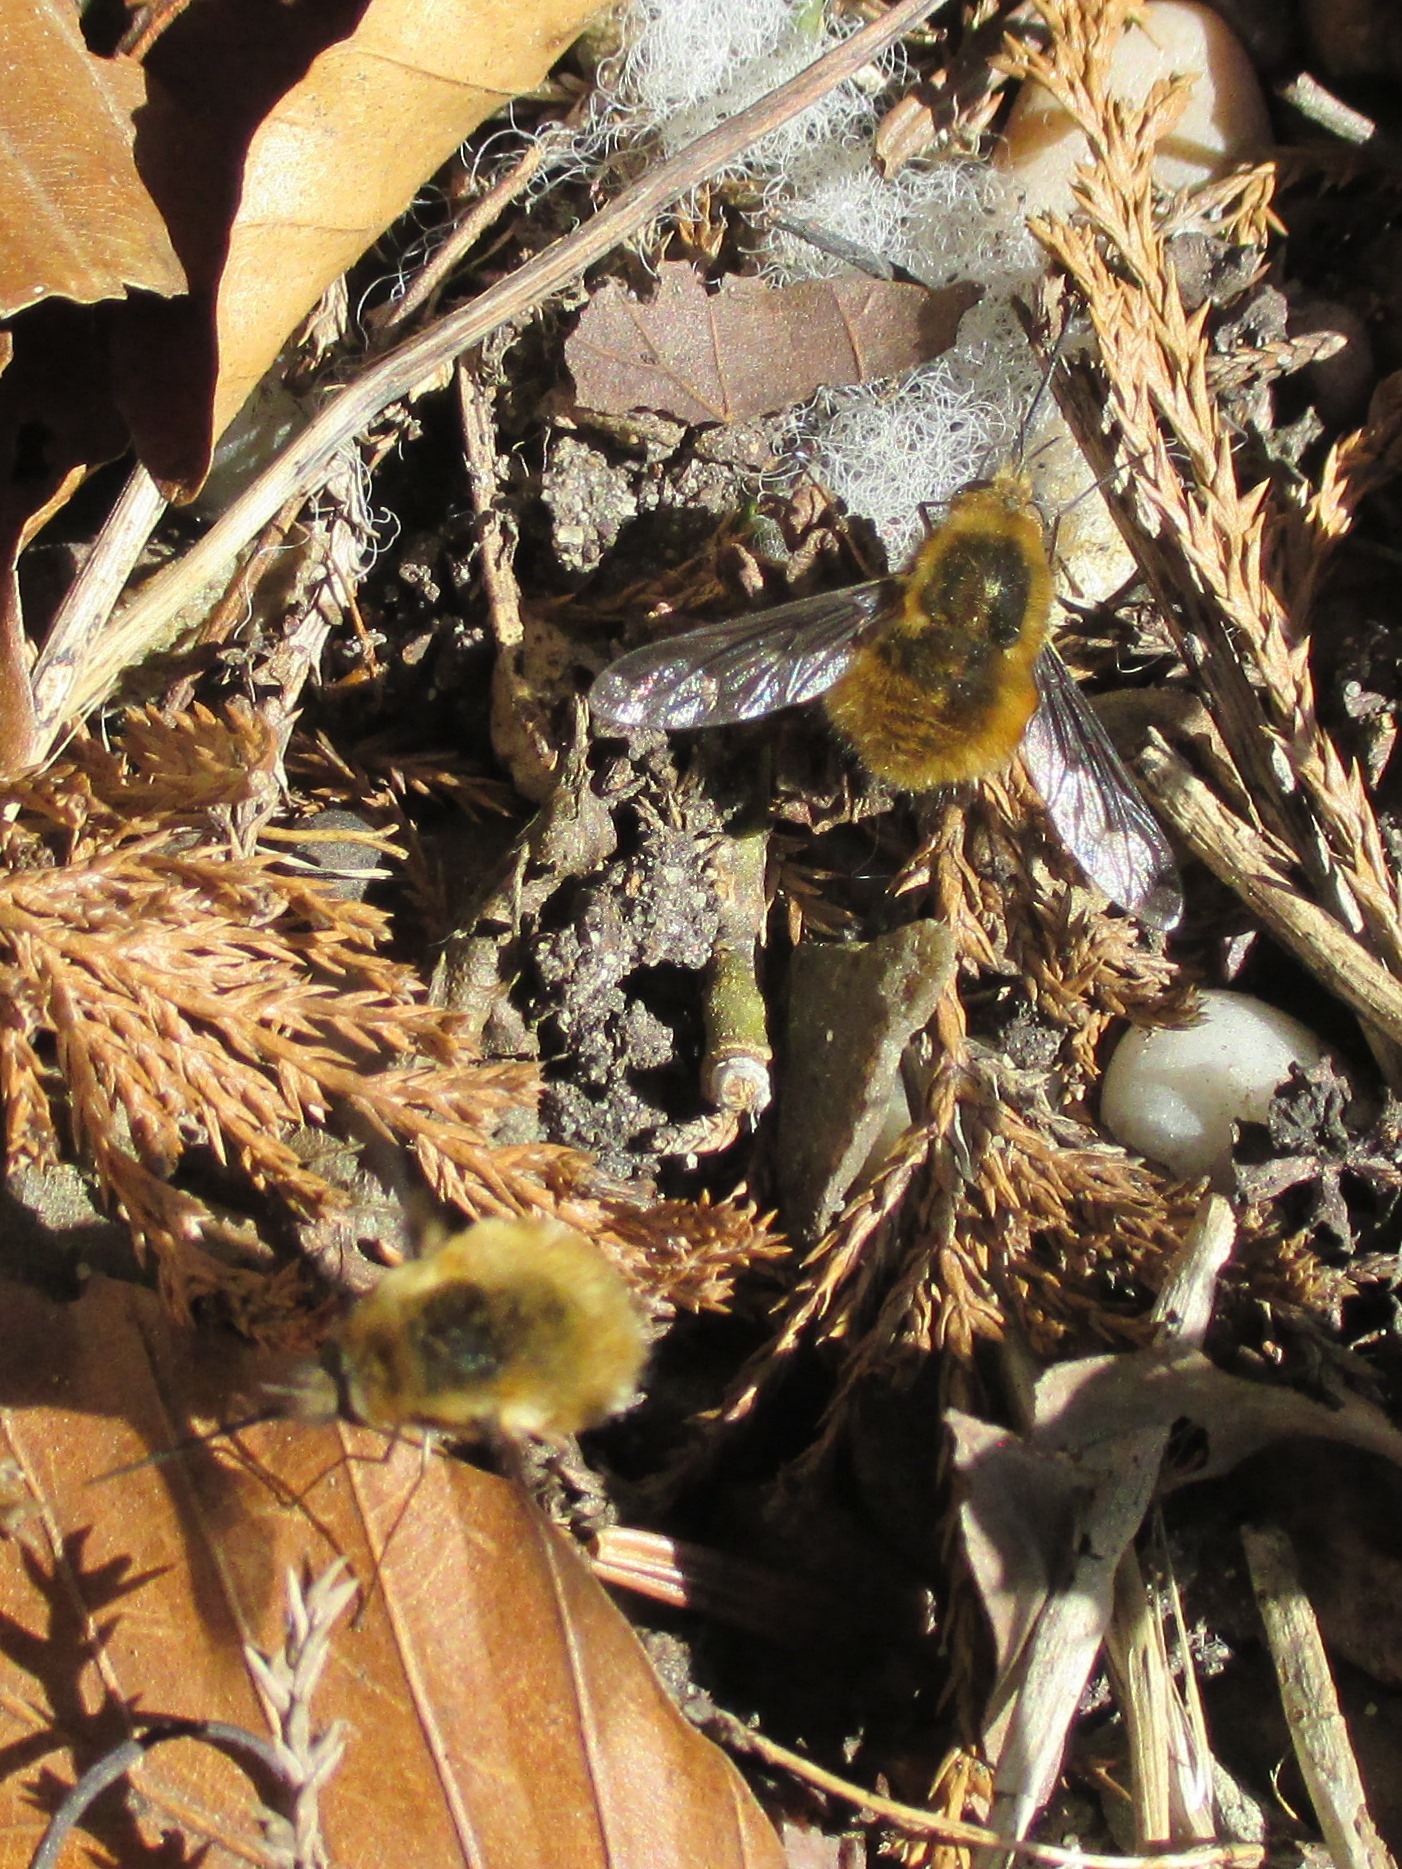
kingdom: Animalia
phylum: Arthropoda
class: Insecta
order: Diptera
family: Bombyliidae
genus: Bombylius
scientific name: Bombylius major
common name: Bee fly
